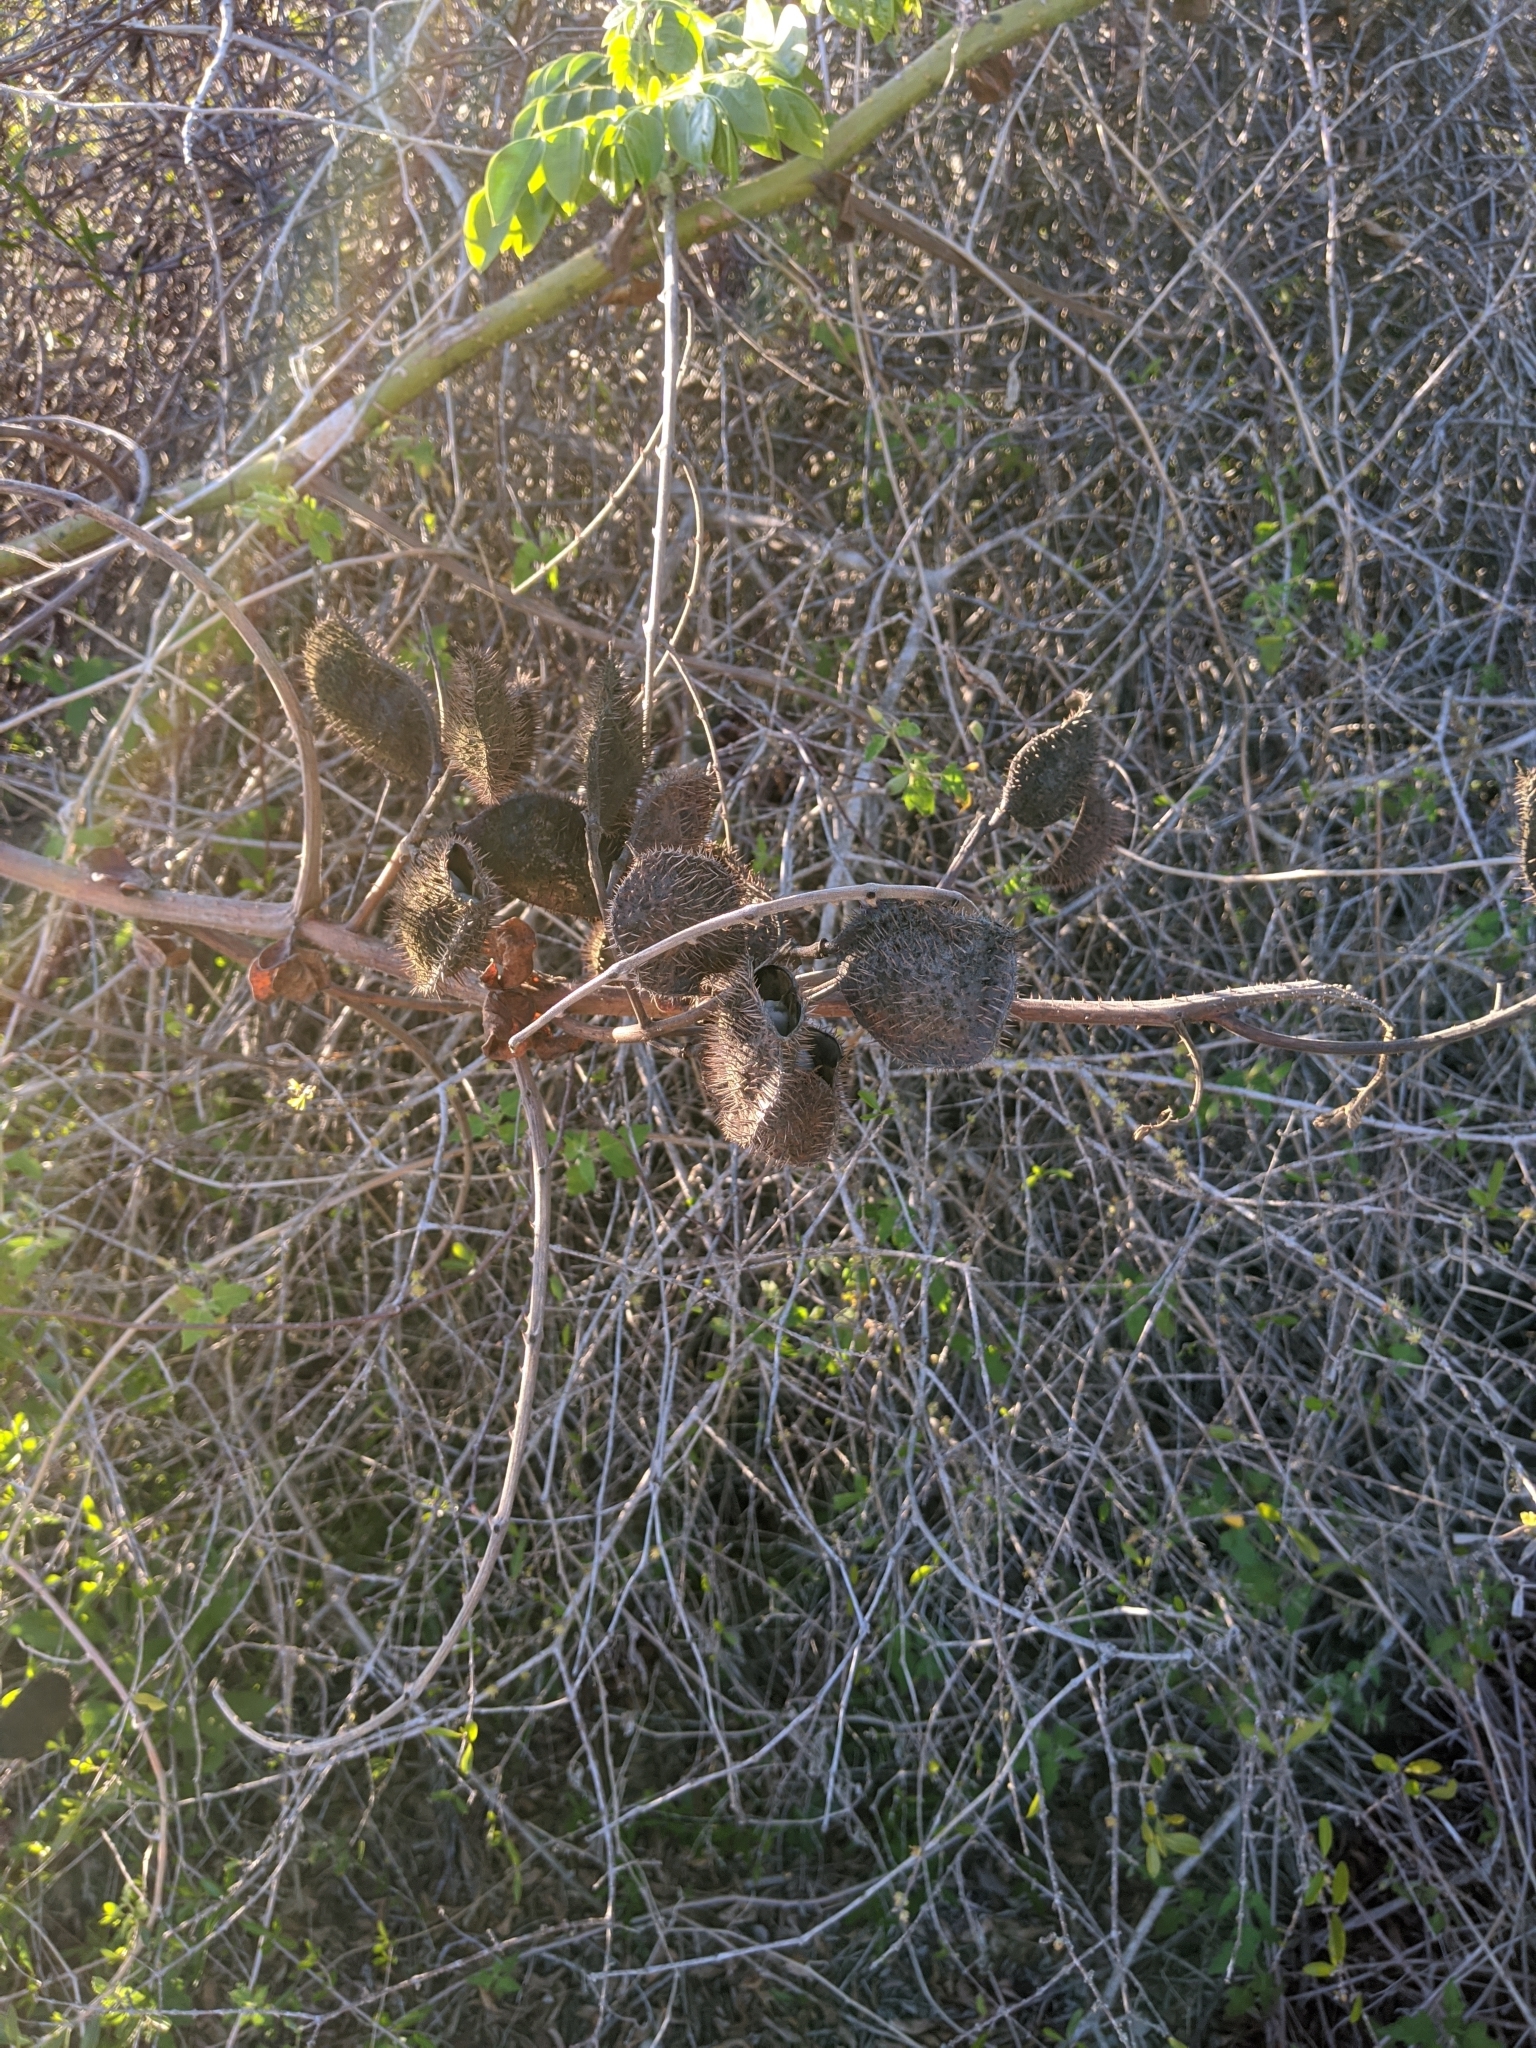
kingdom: Plantae
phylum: Tracheophyta
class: Magnoliopsida
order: Fabales
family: Fabaceae
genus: Guilandina
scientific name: Guilandina bonduc
